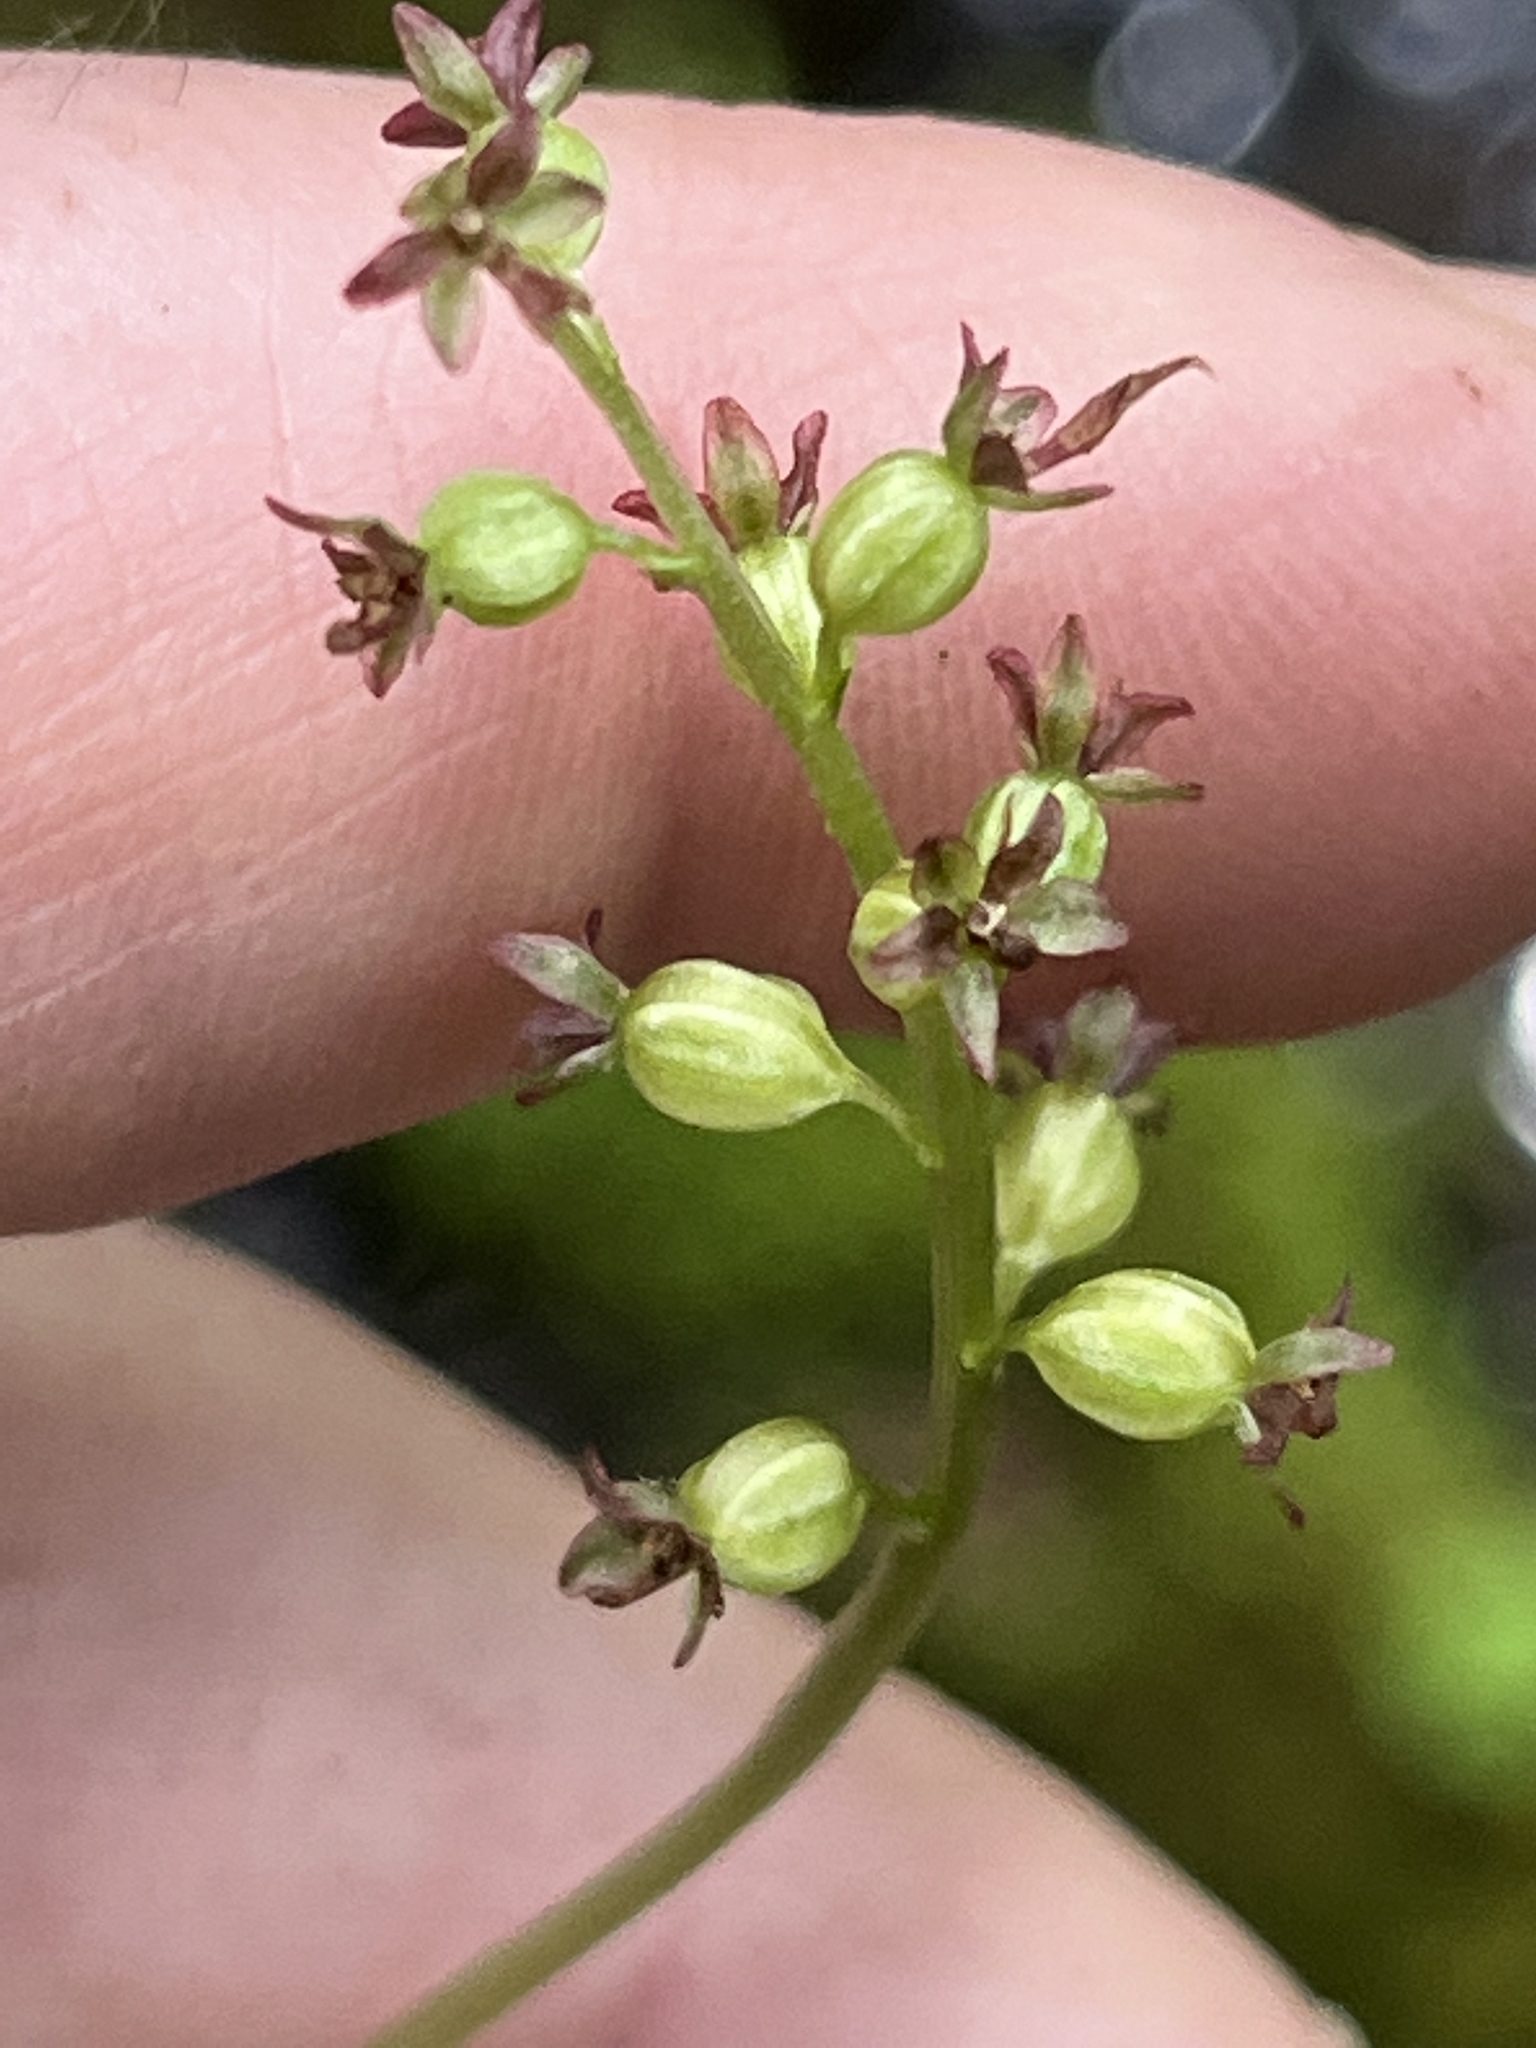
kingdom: Plantae
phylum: Tracheophyta
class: Liliopsida
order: Asparagales
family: Orchidaceae
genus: Neottia
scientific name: Neottia cordata
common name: Lesser twayblade
